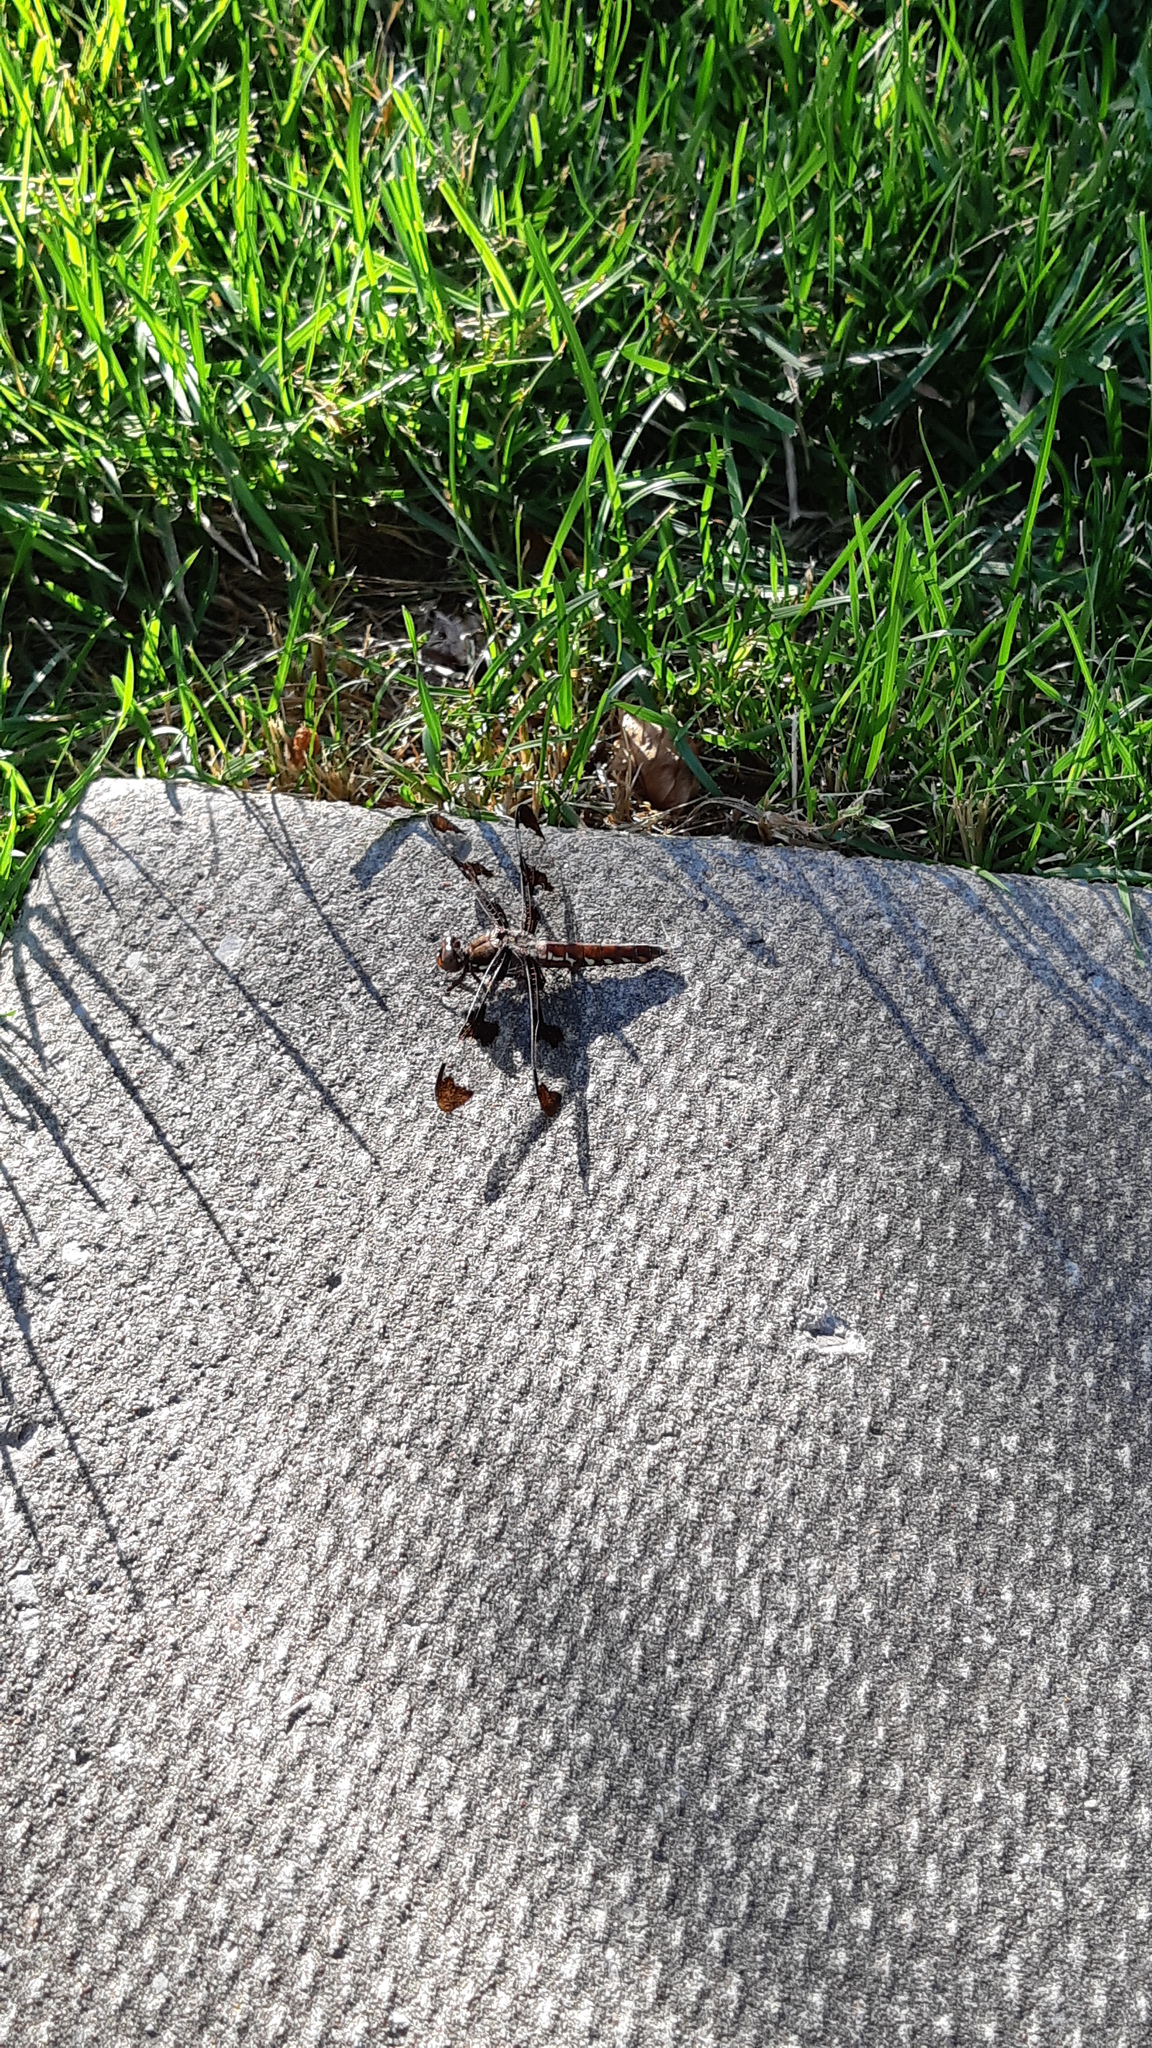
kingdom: Animalia
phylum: Arthropoda
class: Insecta
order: Odonata
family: Libellulidae
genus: Plathemis
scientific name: Plathemis lydia
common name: Common whitetail
